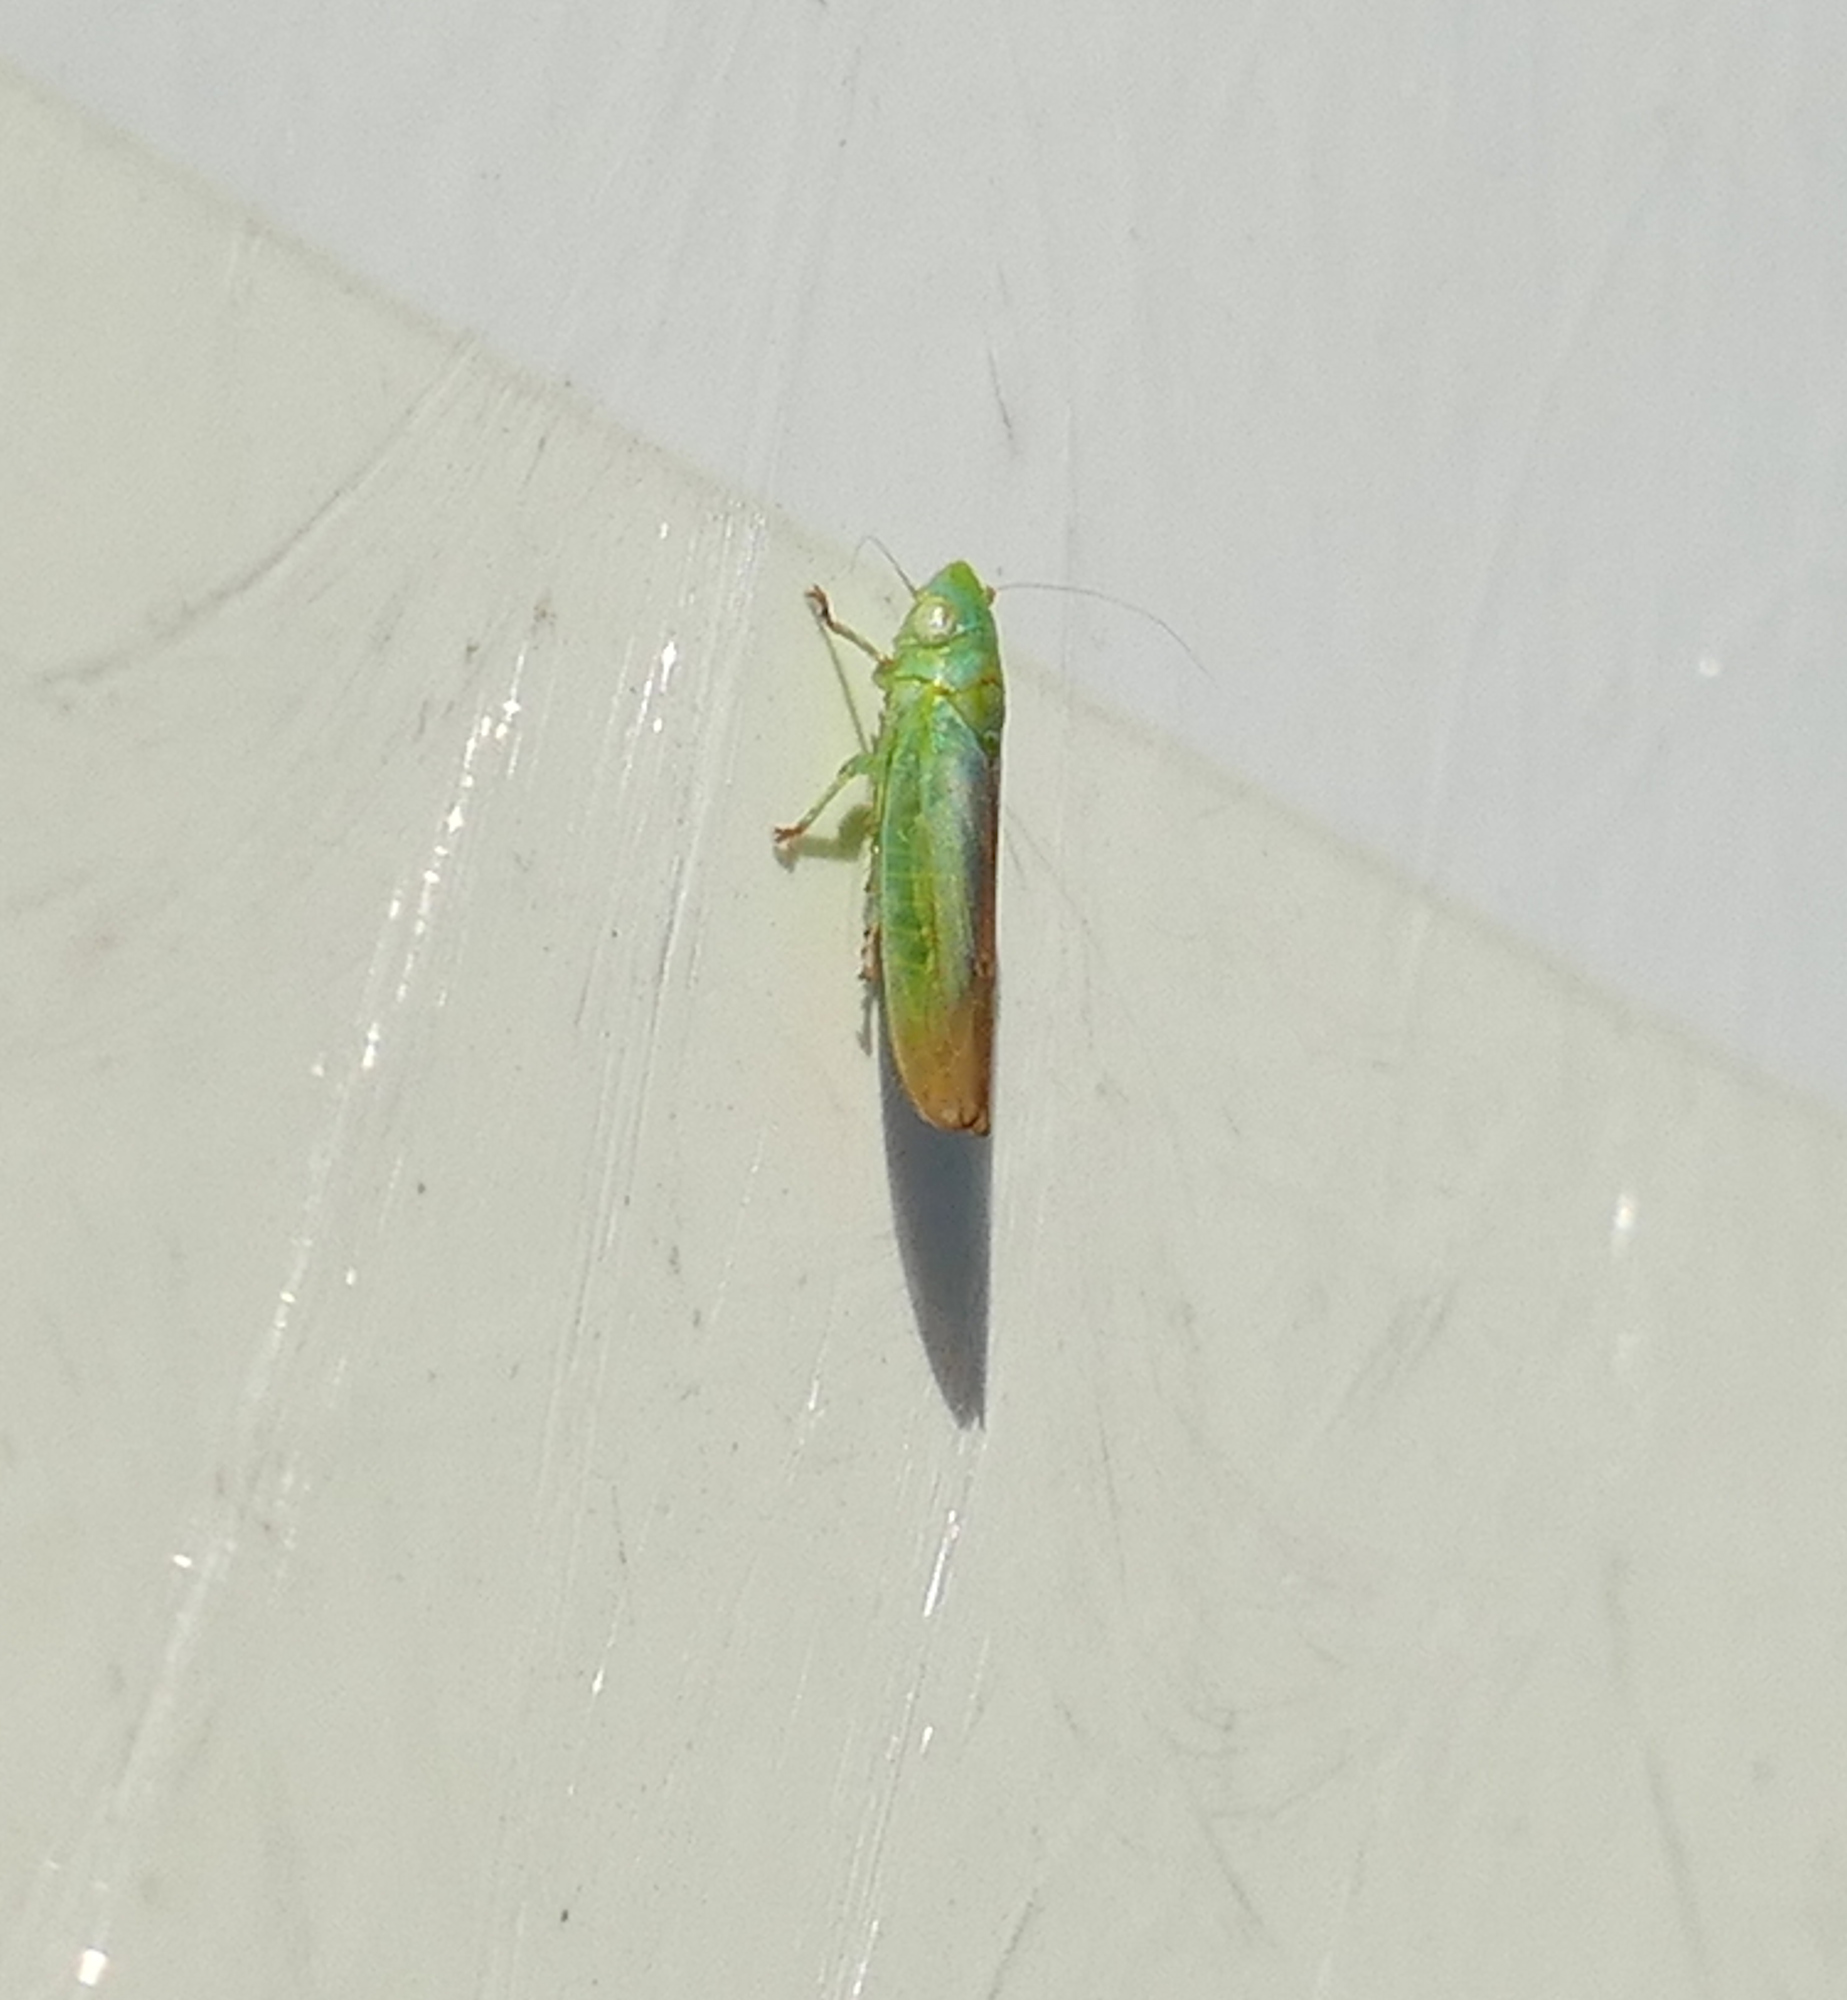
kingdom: Animalia
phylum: Arthropoda
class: Insecta
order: Hemiptera
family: Cicadellidae
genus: Neocoelidia
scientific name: Neocoelidia tuberculata
